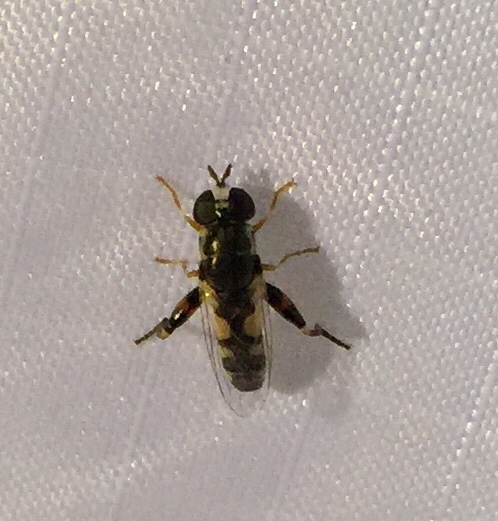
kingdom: Animalia
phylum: Arthropoda
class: Insecta
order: Diptera
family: Syrphidae
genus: Syritta
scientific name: Syritta flaviventris
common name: Syrphid fly
